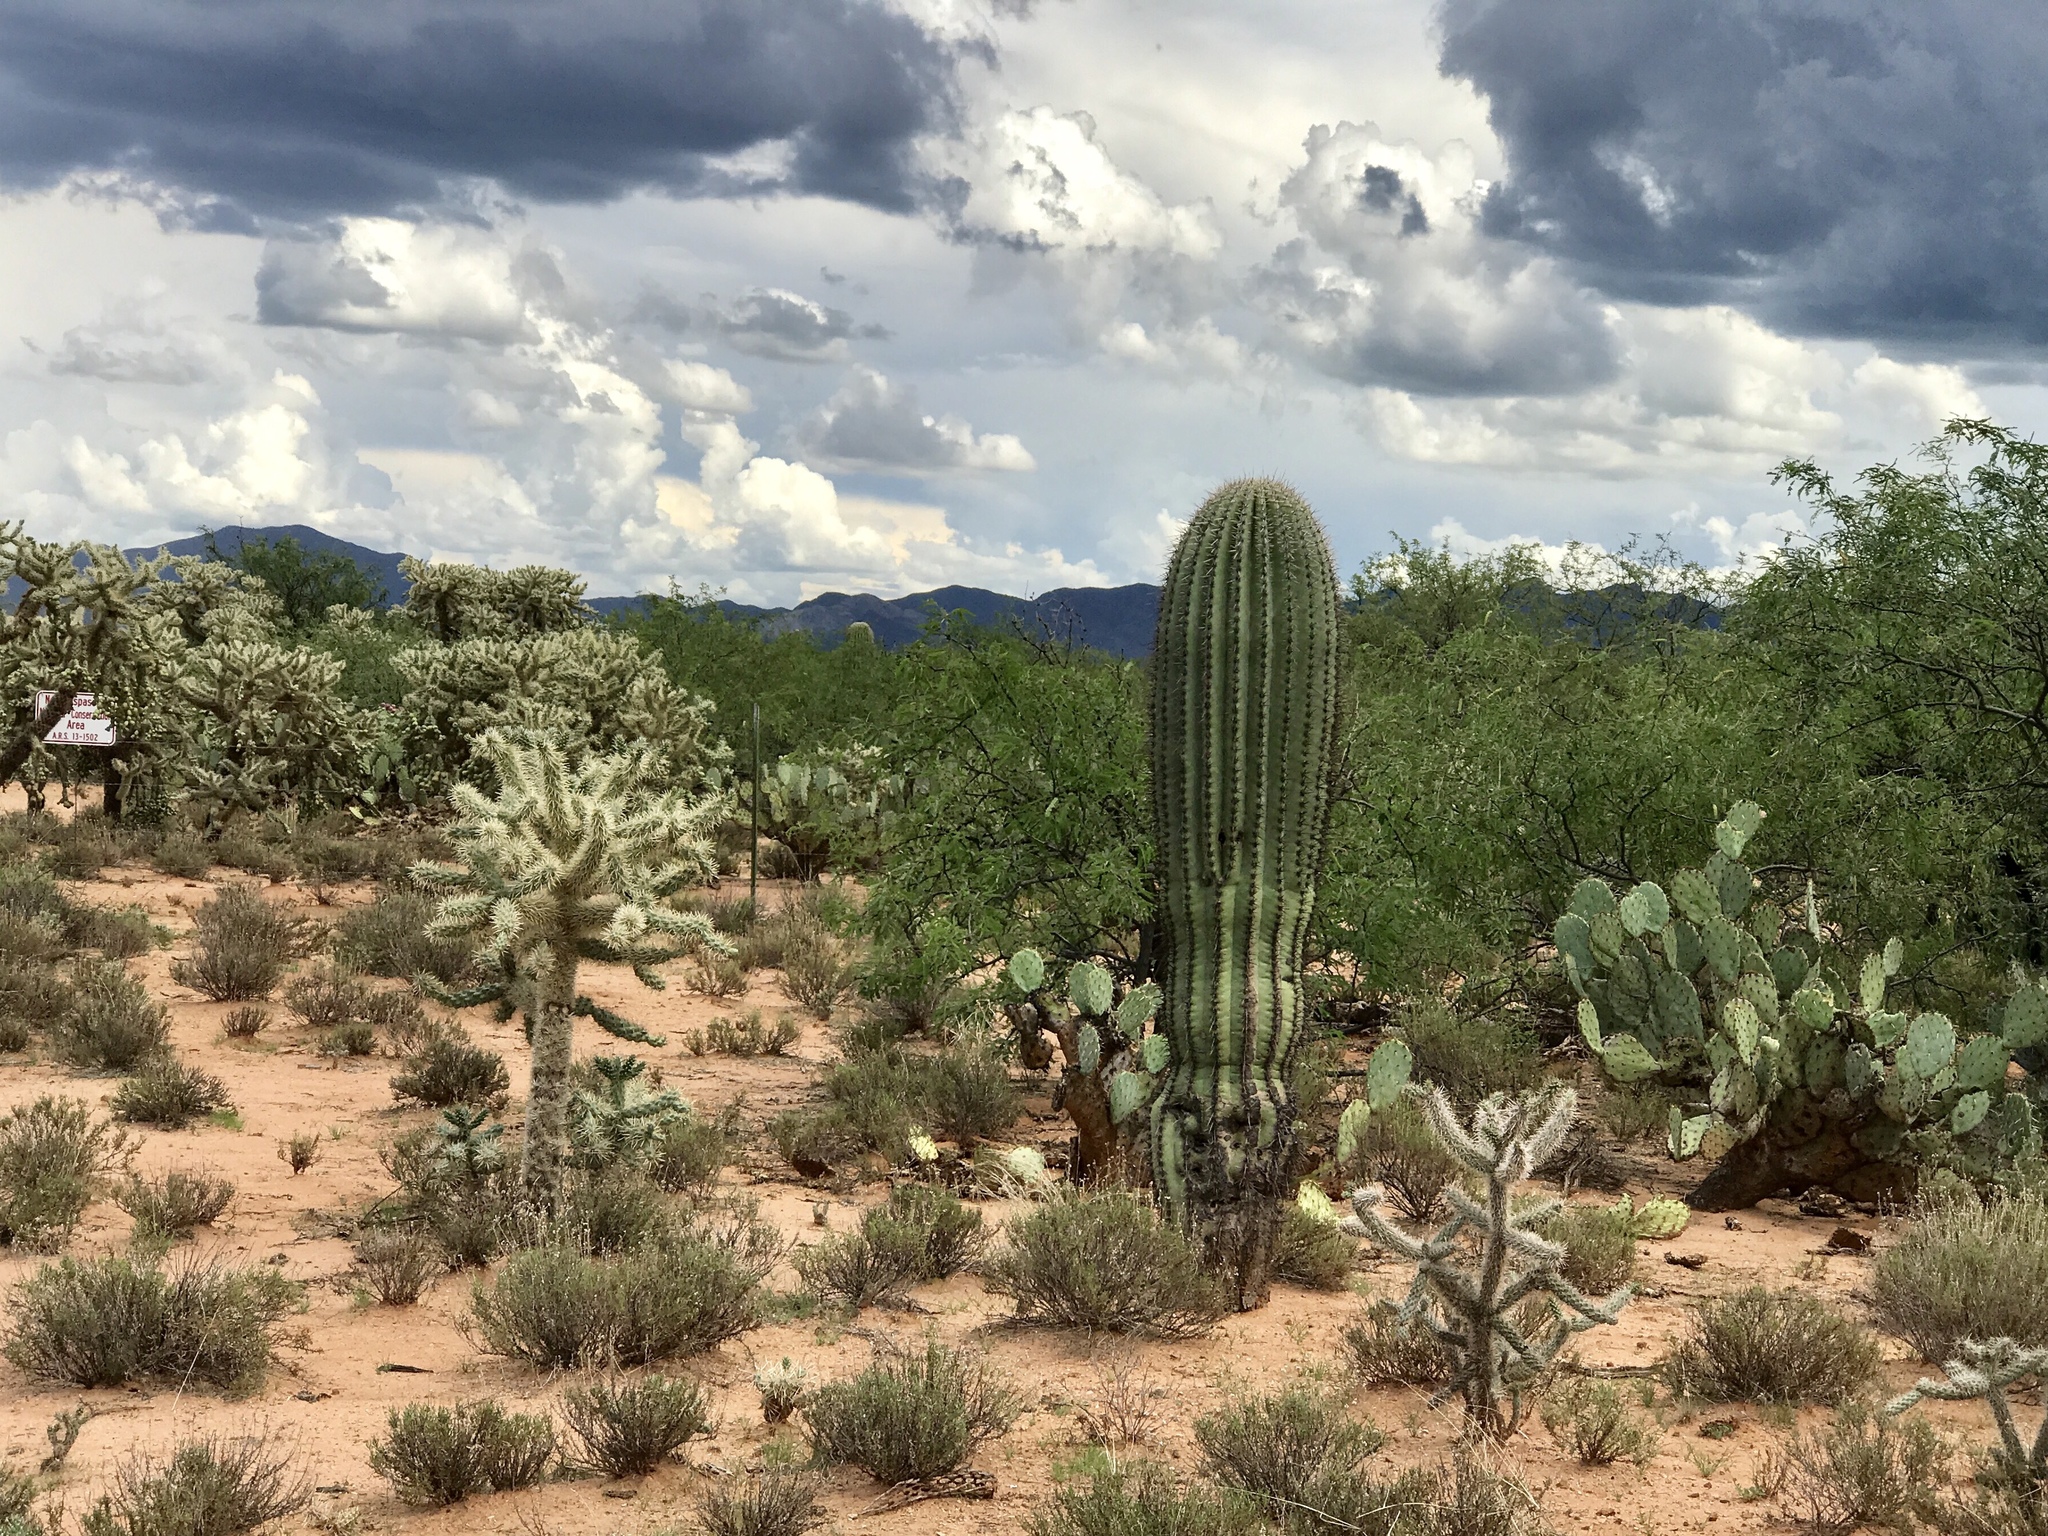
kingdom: Plantae
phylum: Tracheophyta
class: Magnoliopsida
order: Caryophyllales
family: Cactaceae
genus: Carnegiea
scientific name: Carnegiea gigantea
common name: Saguaro
